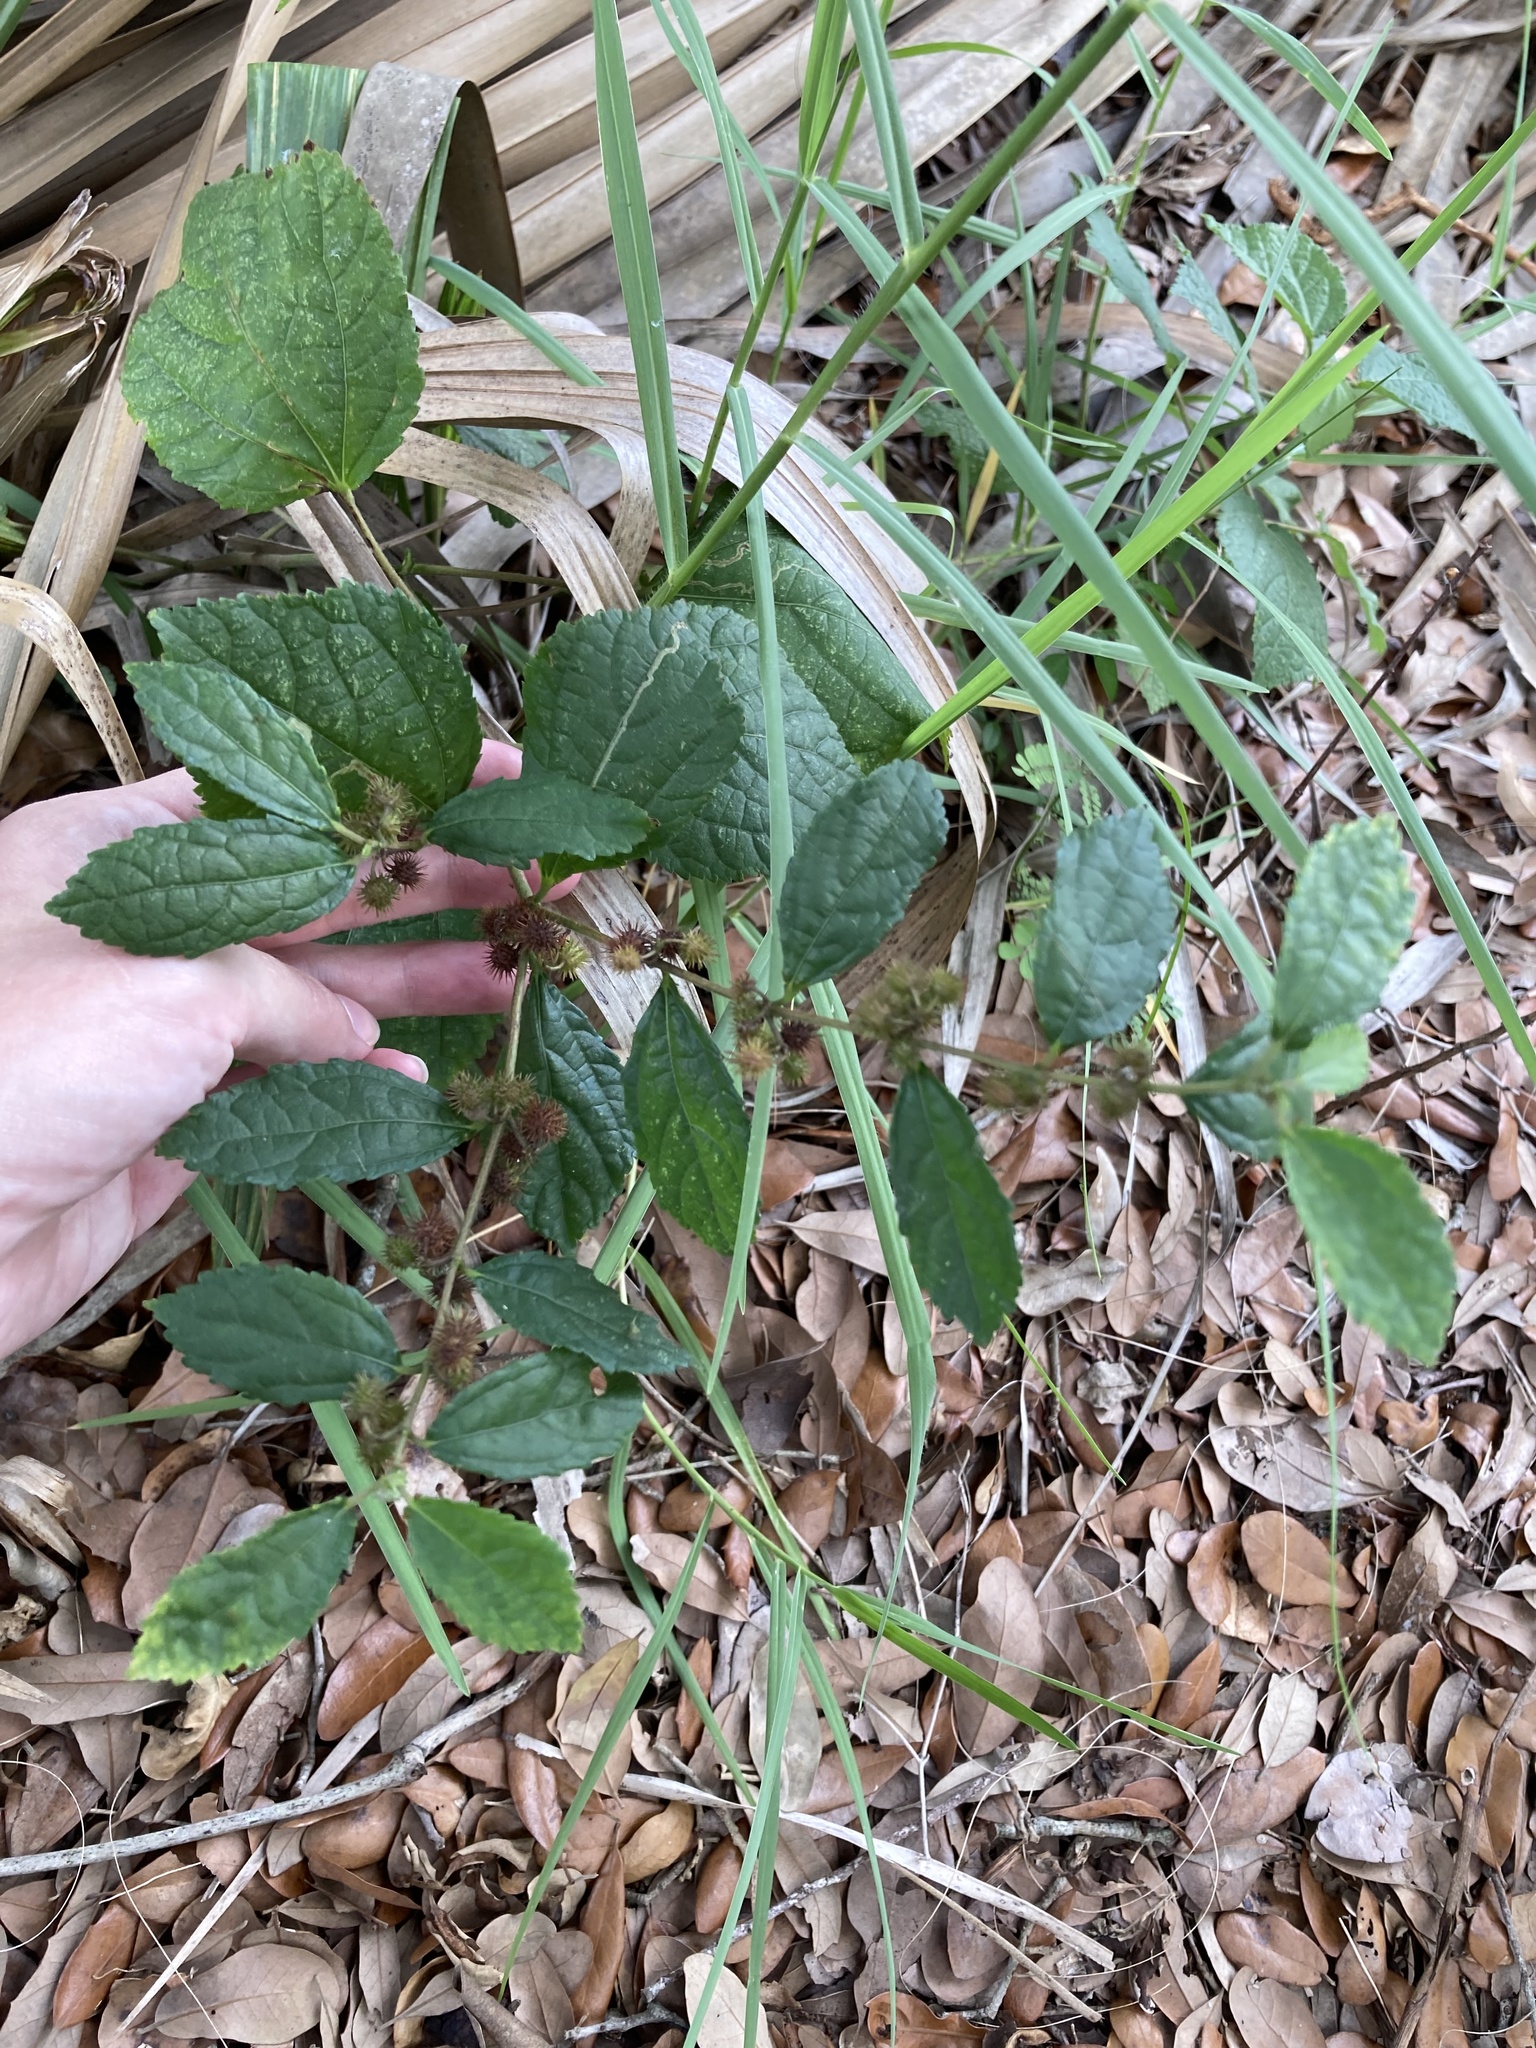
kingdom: Plantae
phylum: Tracheophyta
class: Magnoliopsida
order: Malvales
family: Malvaceae
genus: Triumfetta
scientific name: Triumfetta semitriloba
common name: Sacramento burbark
